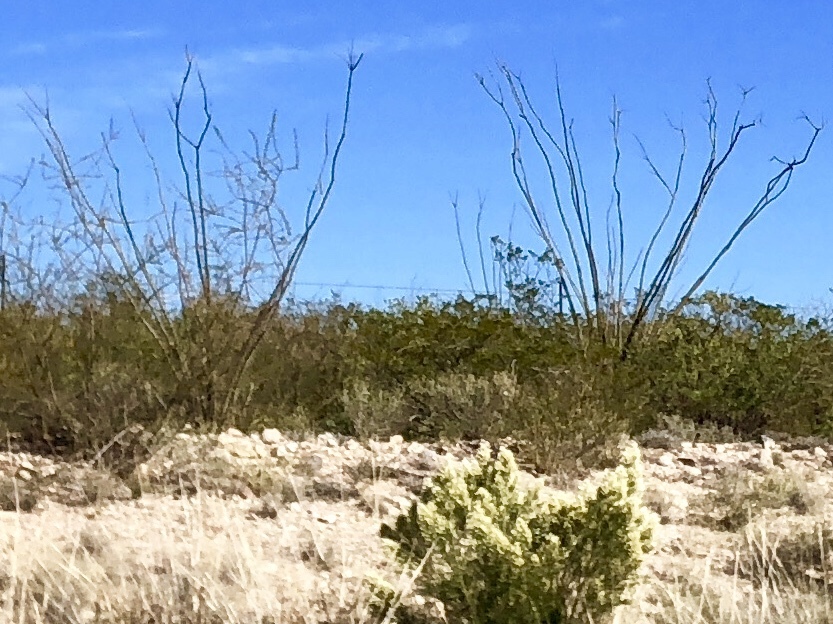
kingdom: Plantae
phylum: Tracheophyta
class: Magnoliopsida
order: Ericales
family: Fouquieriaceae
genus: Fouquieria
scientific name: Fouquieria splendens
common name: Vine-cactus
